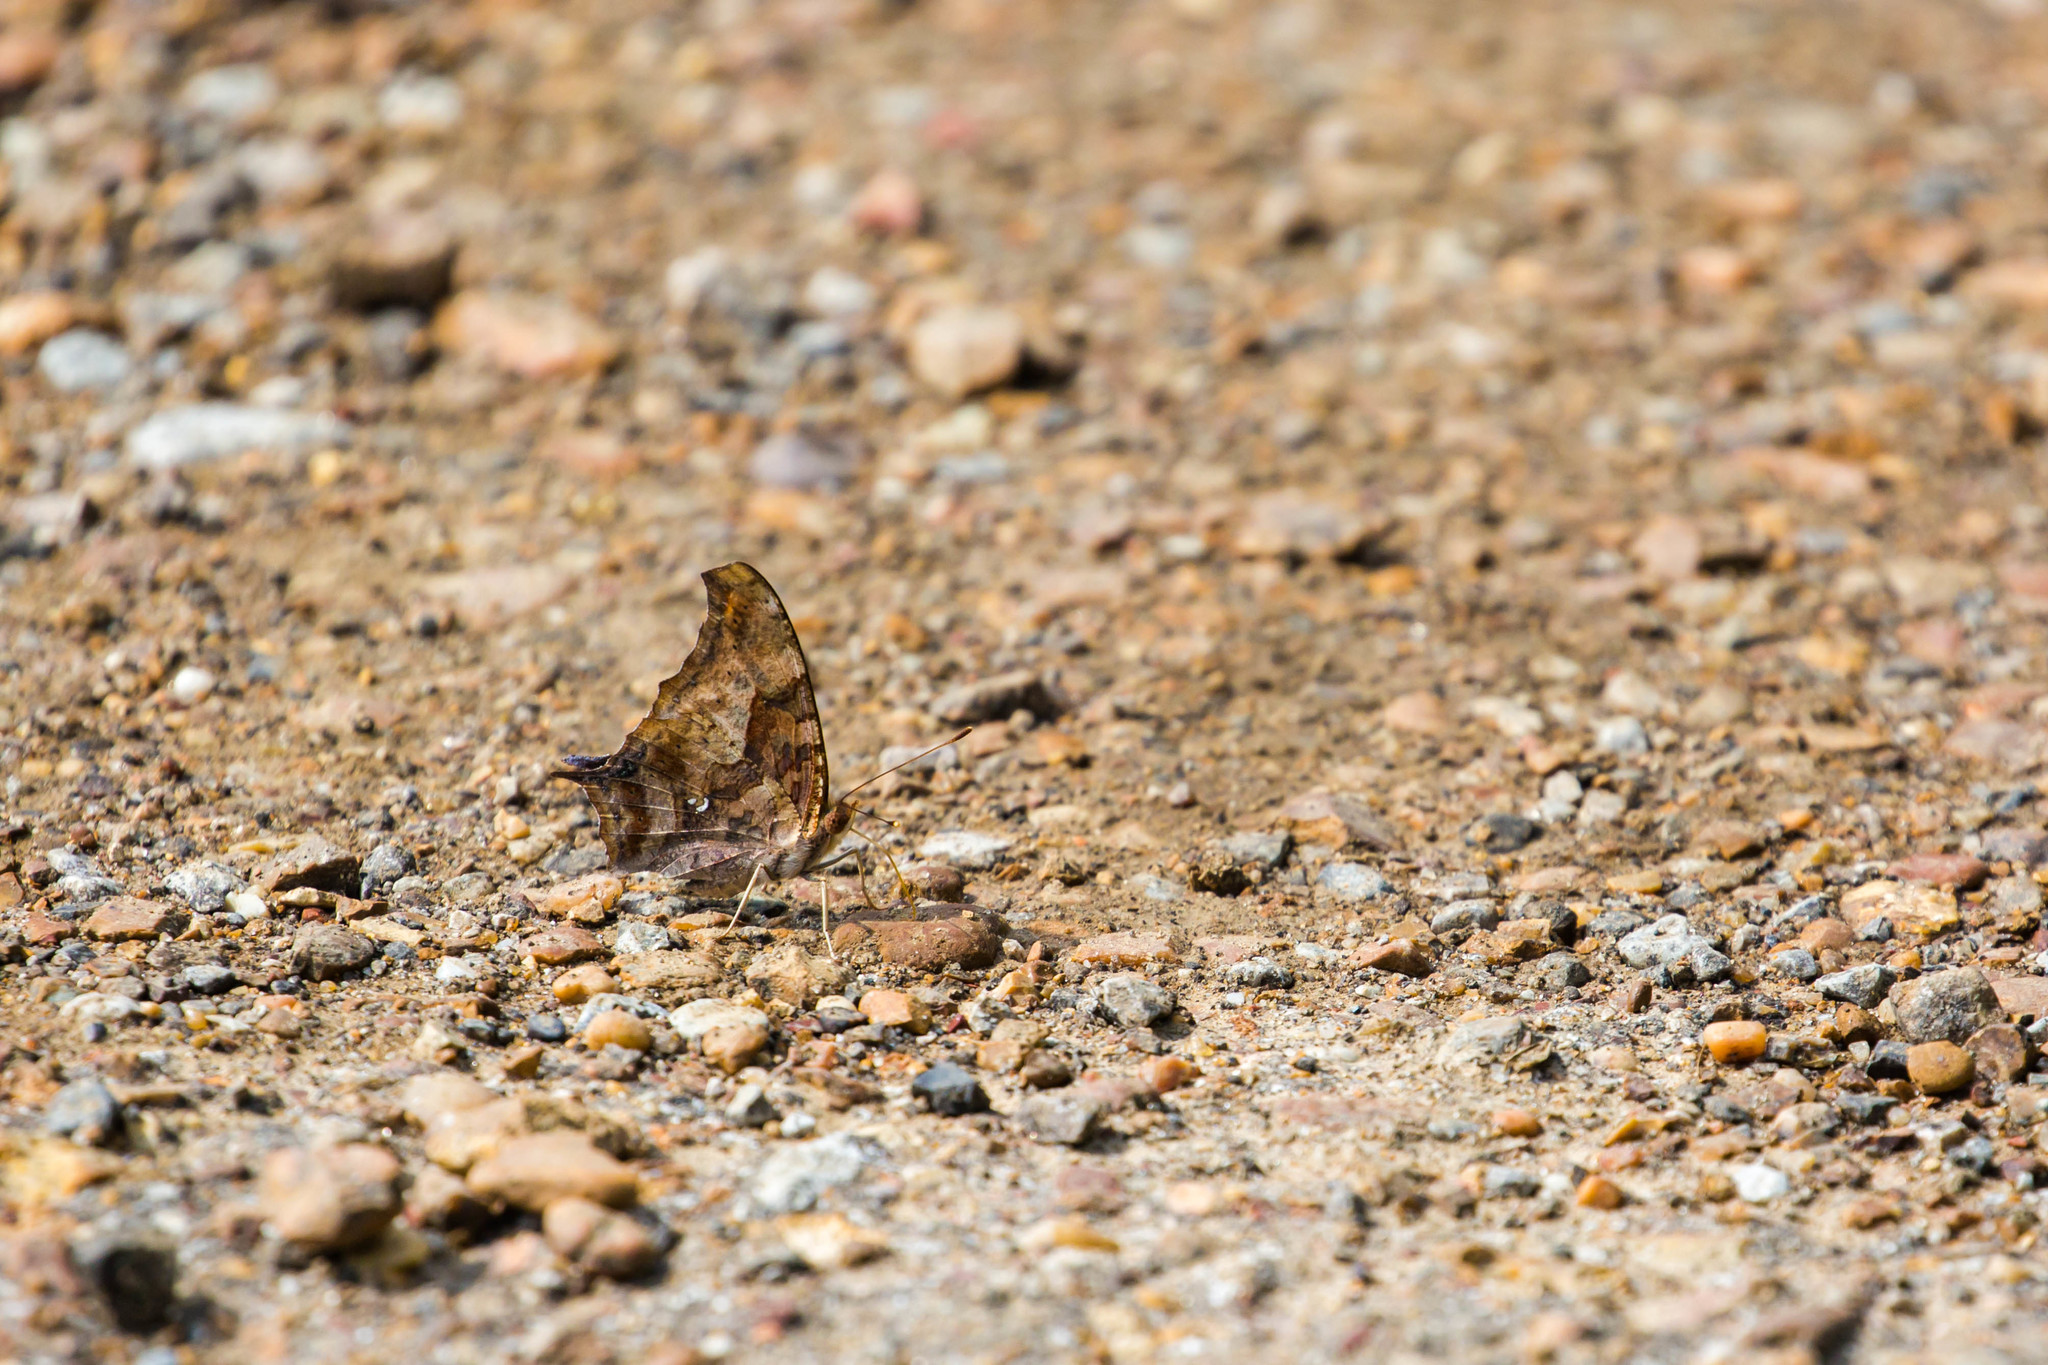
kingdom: Animalia
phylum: Arthropoda
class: Insecta
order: Lepidoptera
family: Nymphalidae
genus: Polygonia
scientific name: Polygonia interrogationis
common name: Question mark
